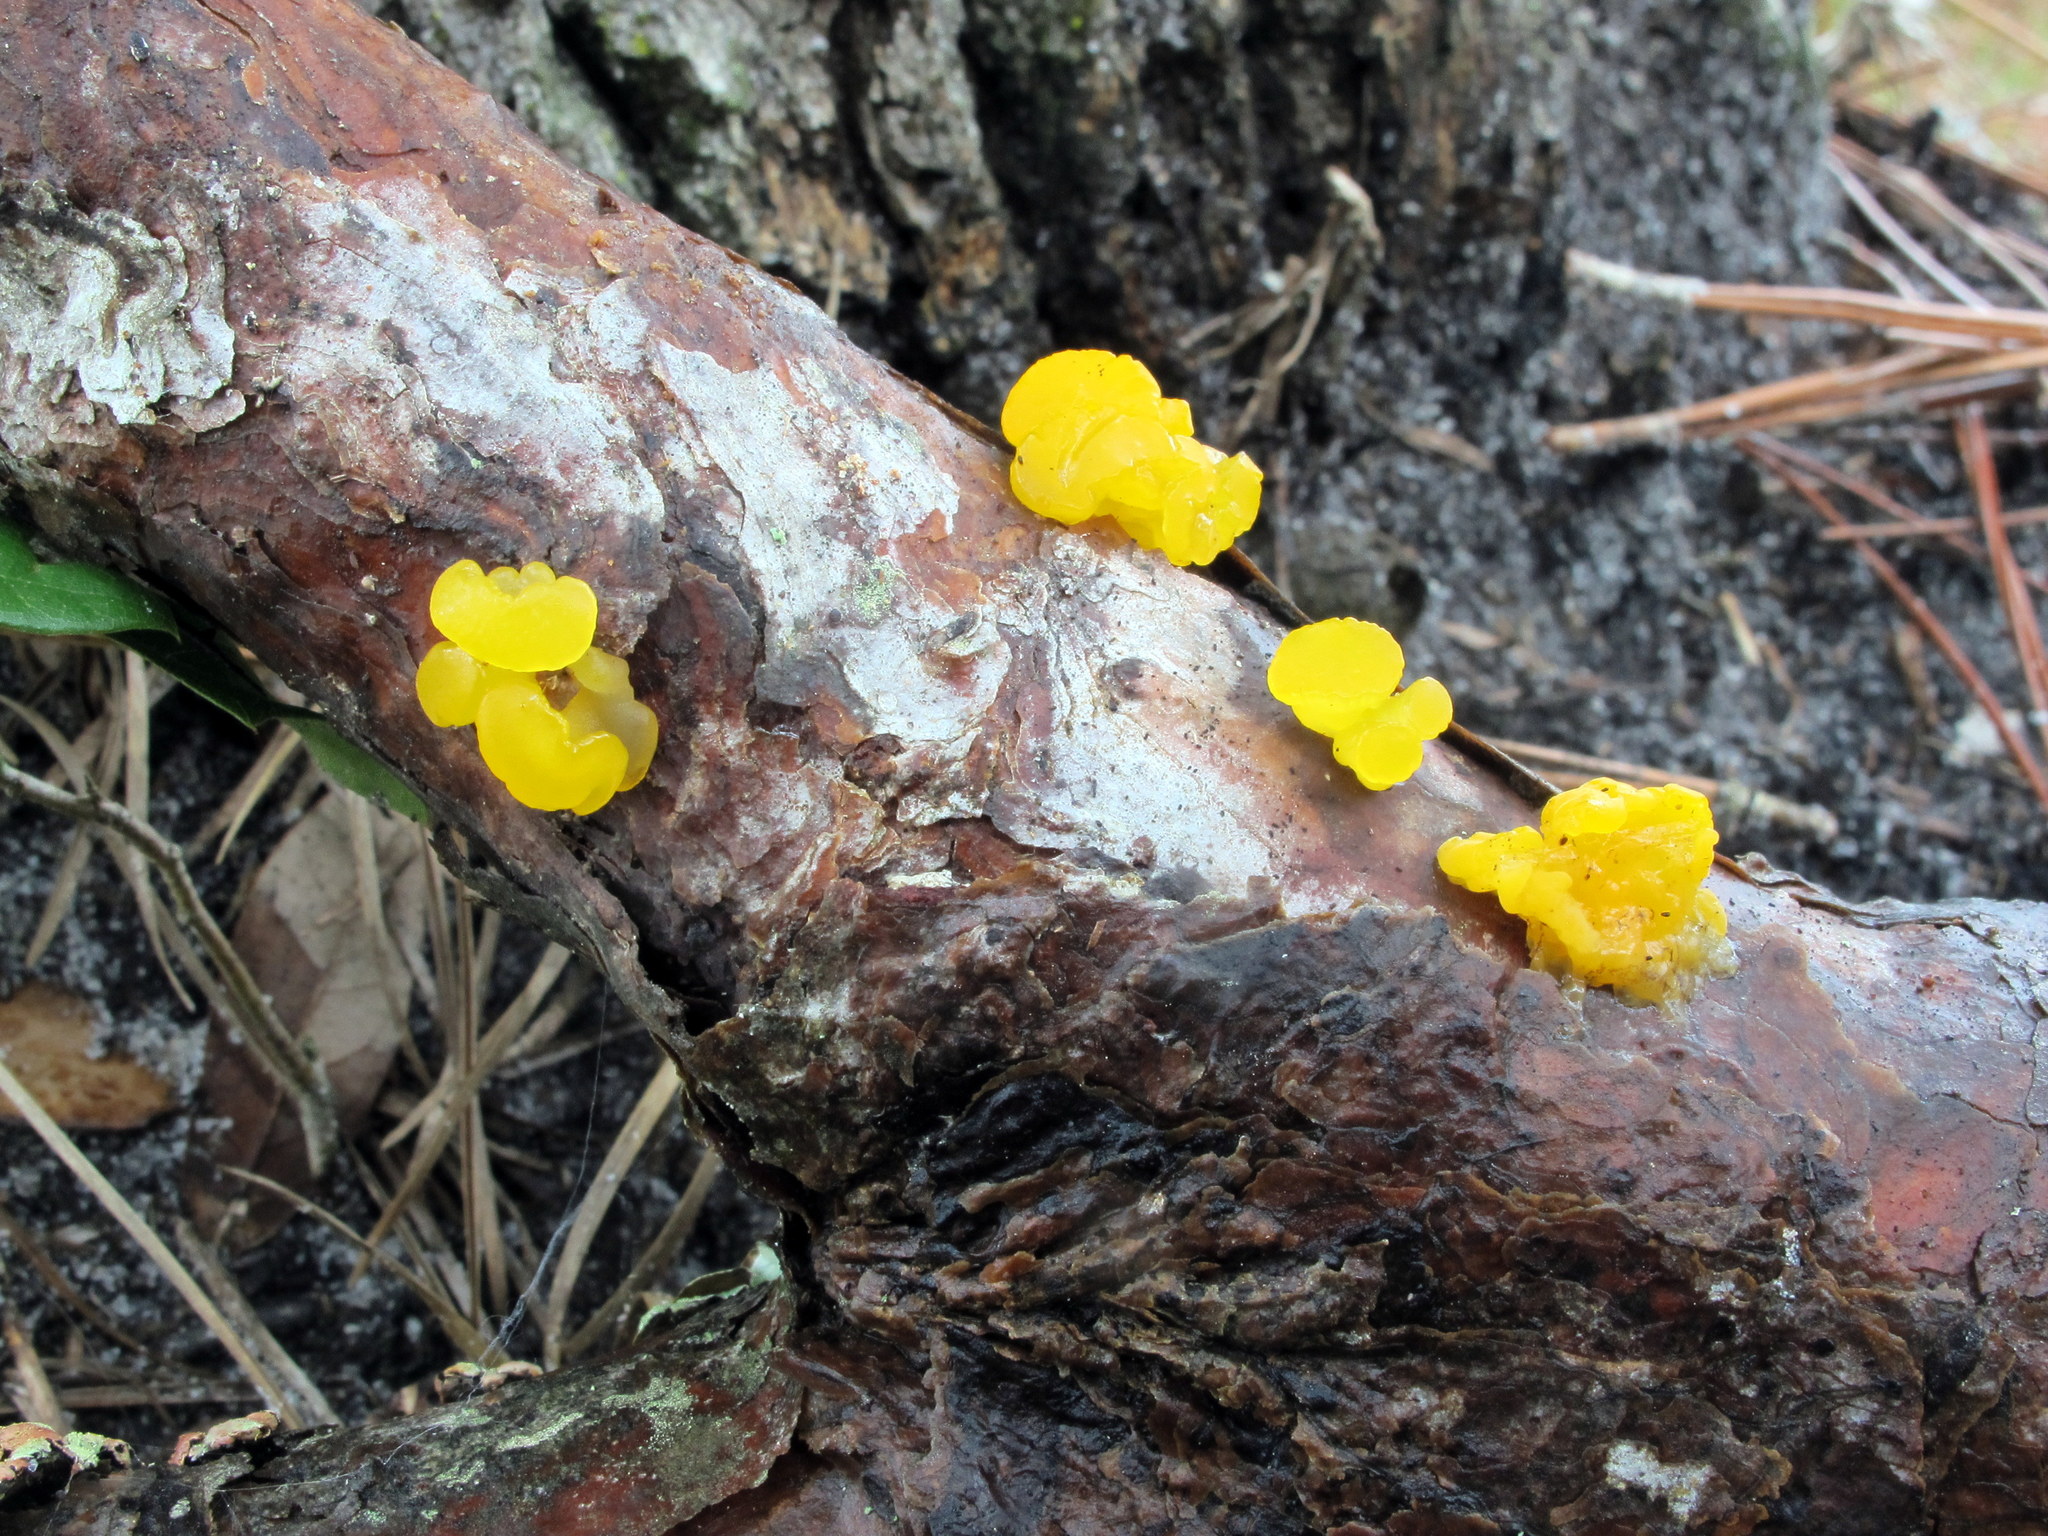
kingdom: Fungi
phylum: Basidiomycota
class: Tremellomycetes
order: Tremellales
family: Tremellaceae
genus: Tremella
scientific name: Tremella mesenterica
